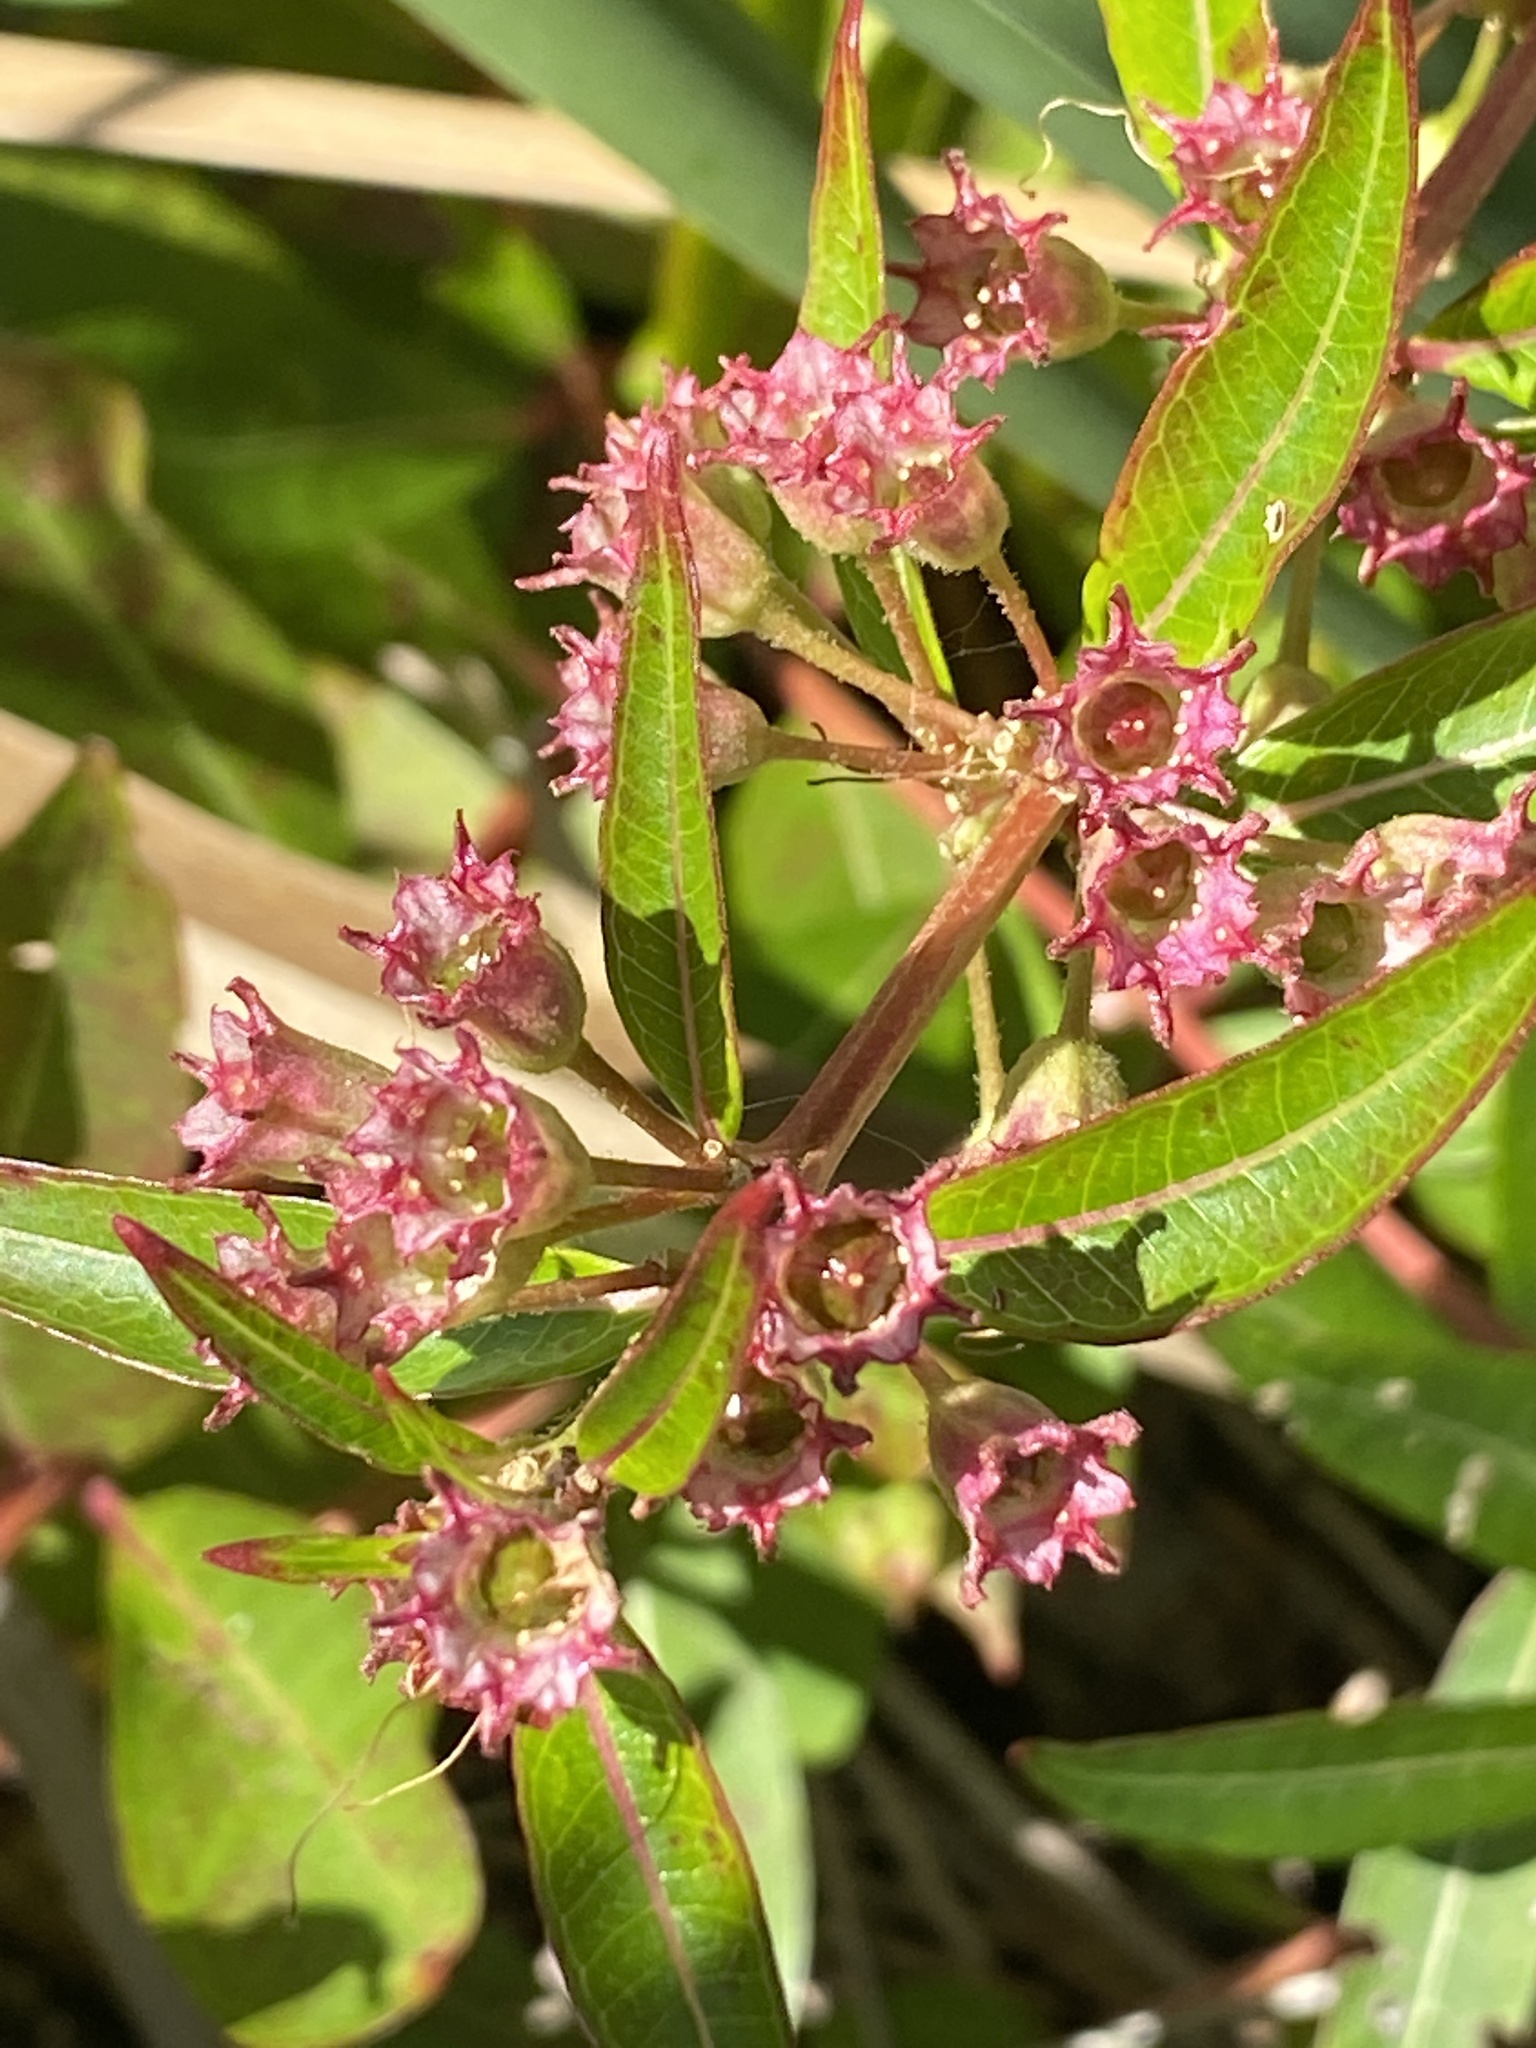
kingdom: Plantae
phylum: Tracheophyta
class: Magnoliopsida
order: Myrtales
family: Lythraceae
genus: Decodon
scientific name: Decodon verticillatus
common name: Hairy swamp loosestrife
